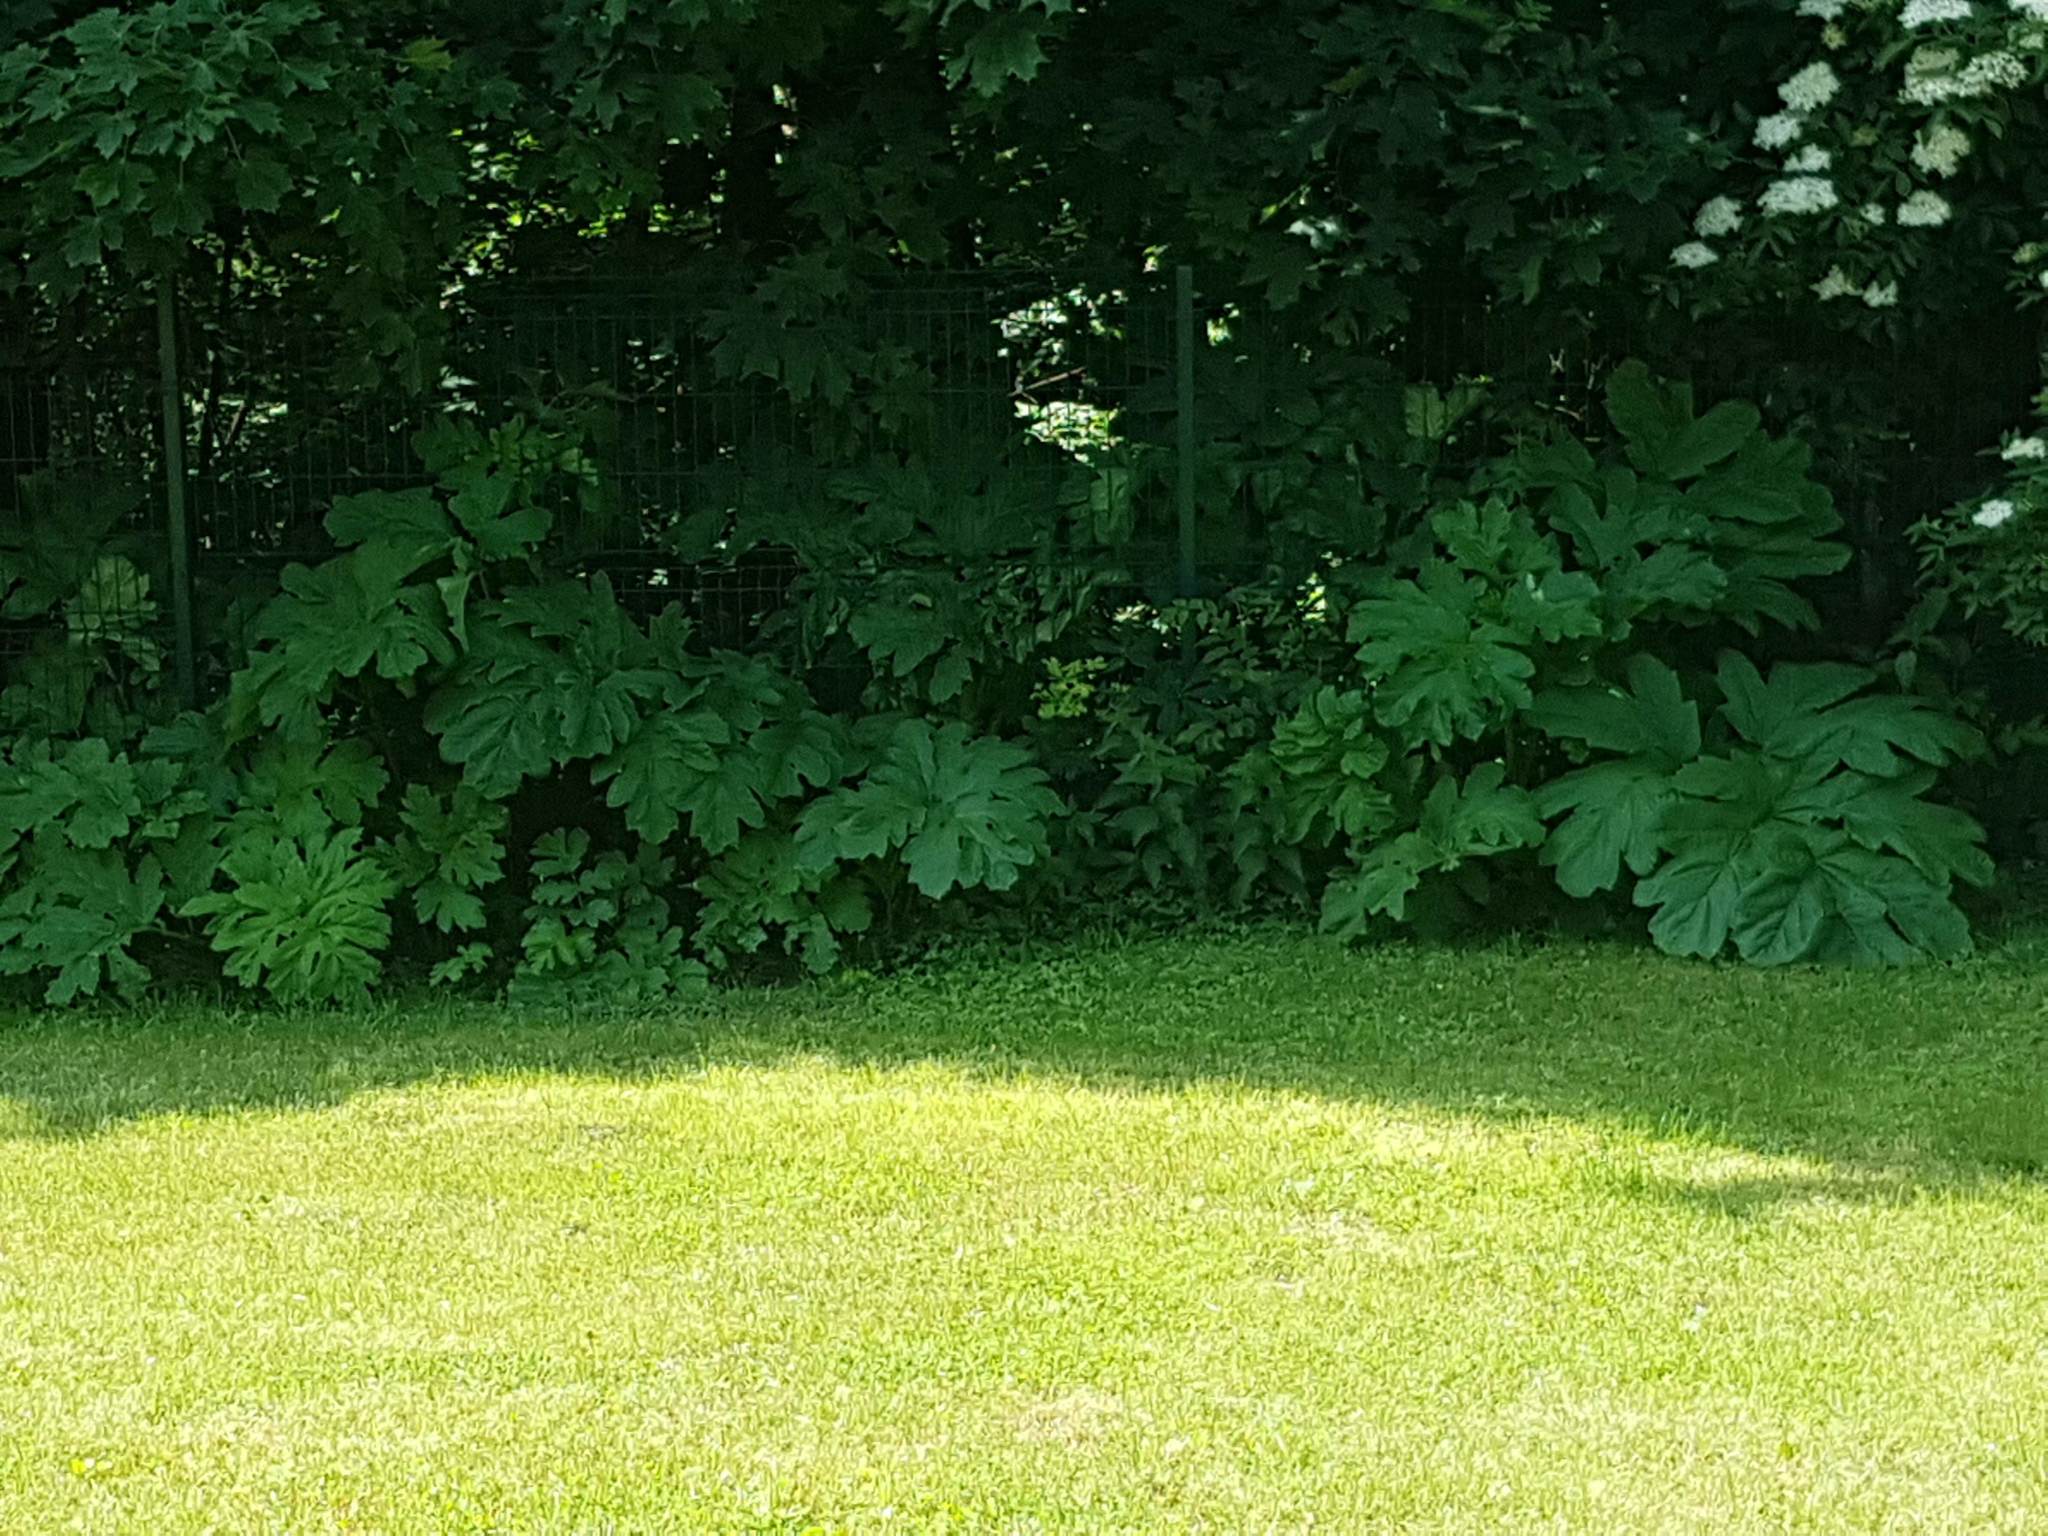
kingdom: Plantae
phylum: Tracheophyta
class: Magnoliopsida
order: Apiales
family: Apiaceae
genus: Heracleum
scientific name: Heracleum sosnowskyi
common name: Sosnowsky's hogweed
